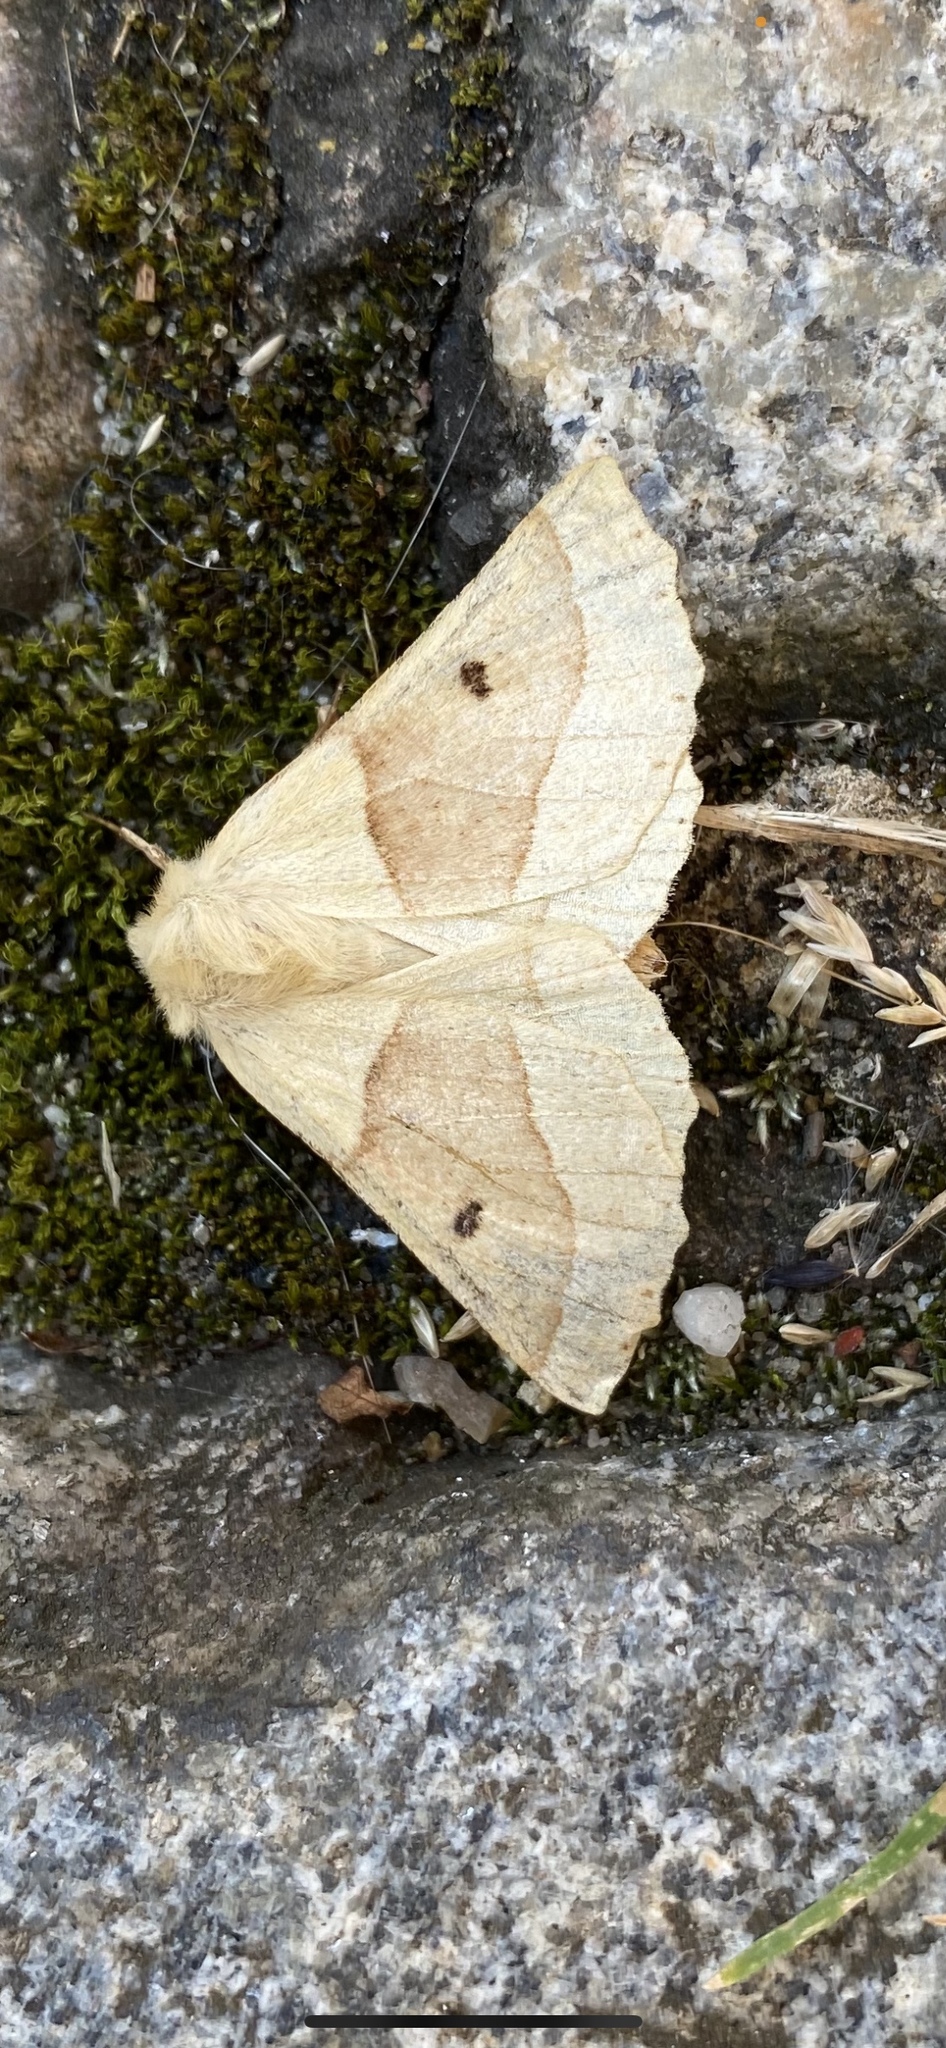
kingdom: Animalia
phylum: Arthropoda
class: Insecta
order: Lepidoptera
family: Geometridae
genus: Crocallis
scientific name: Crocallis elinguaria
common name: Scalloped oak
